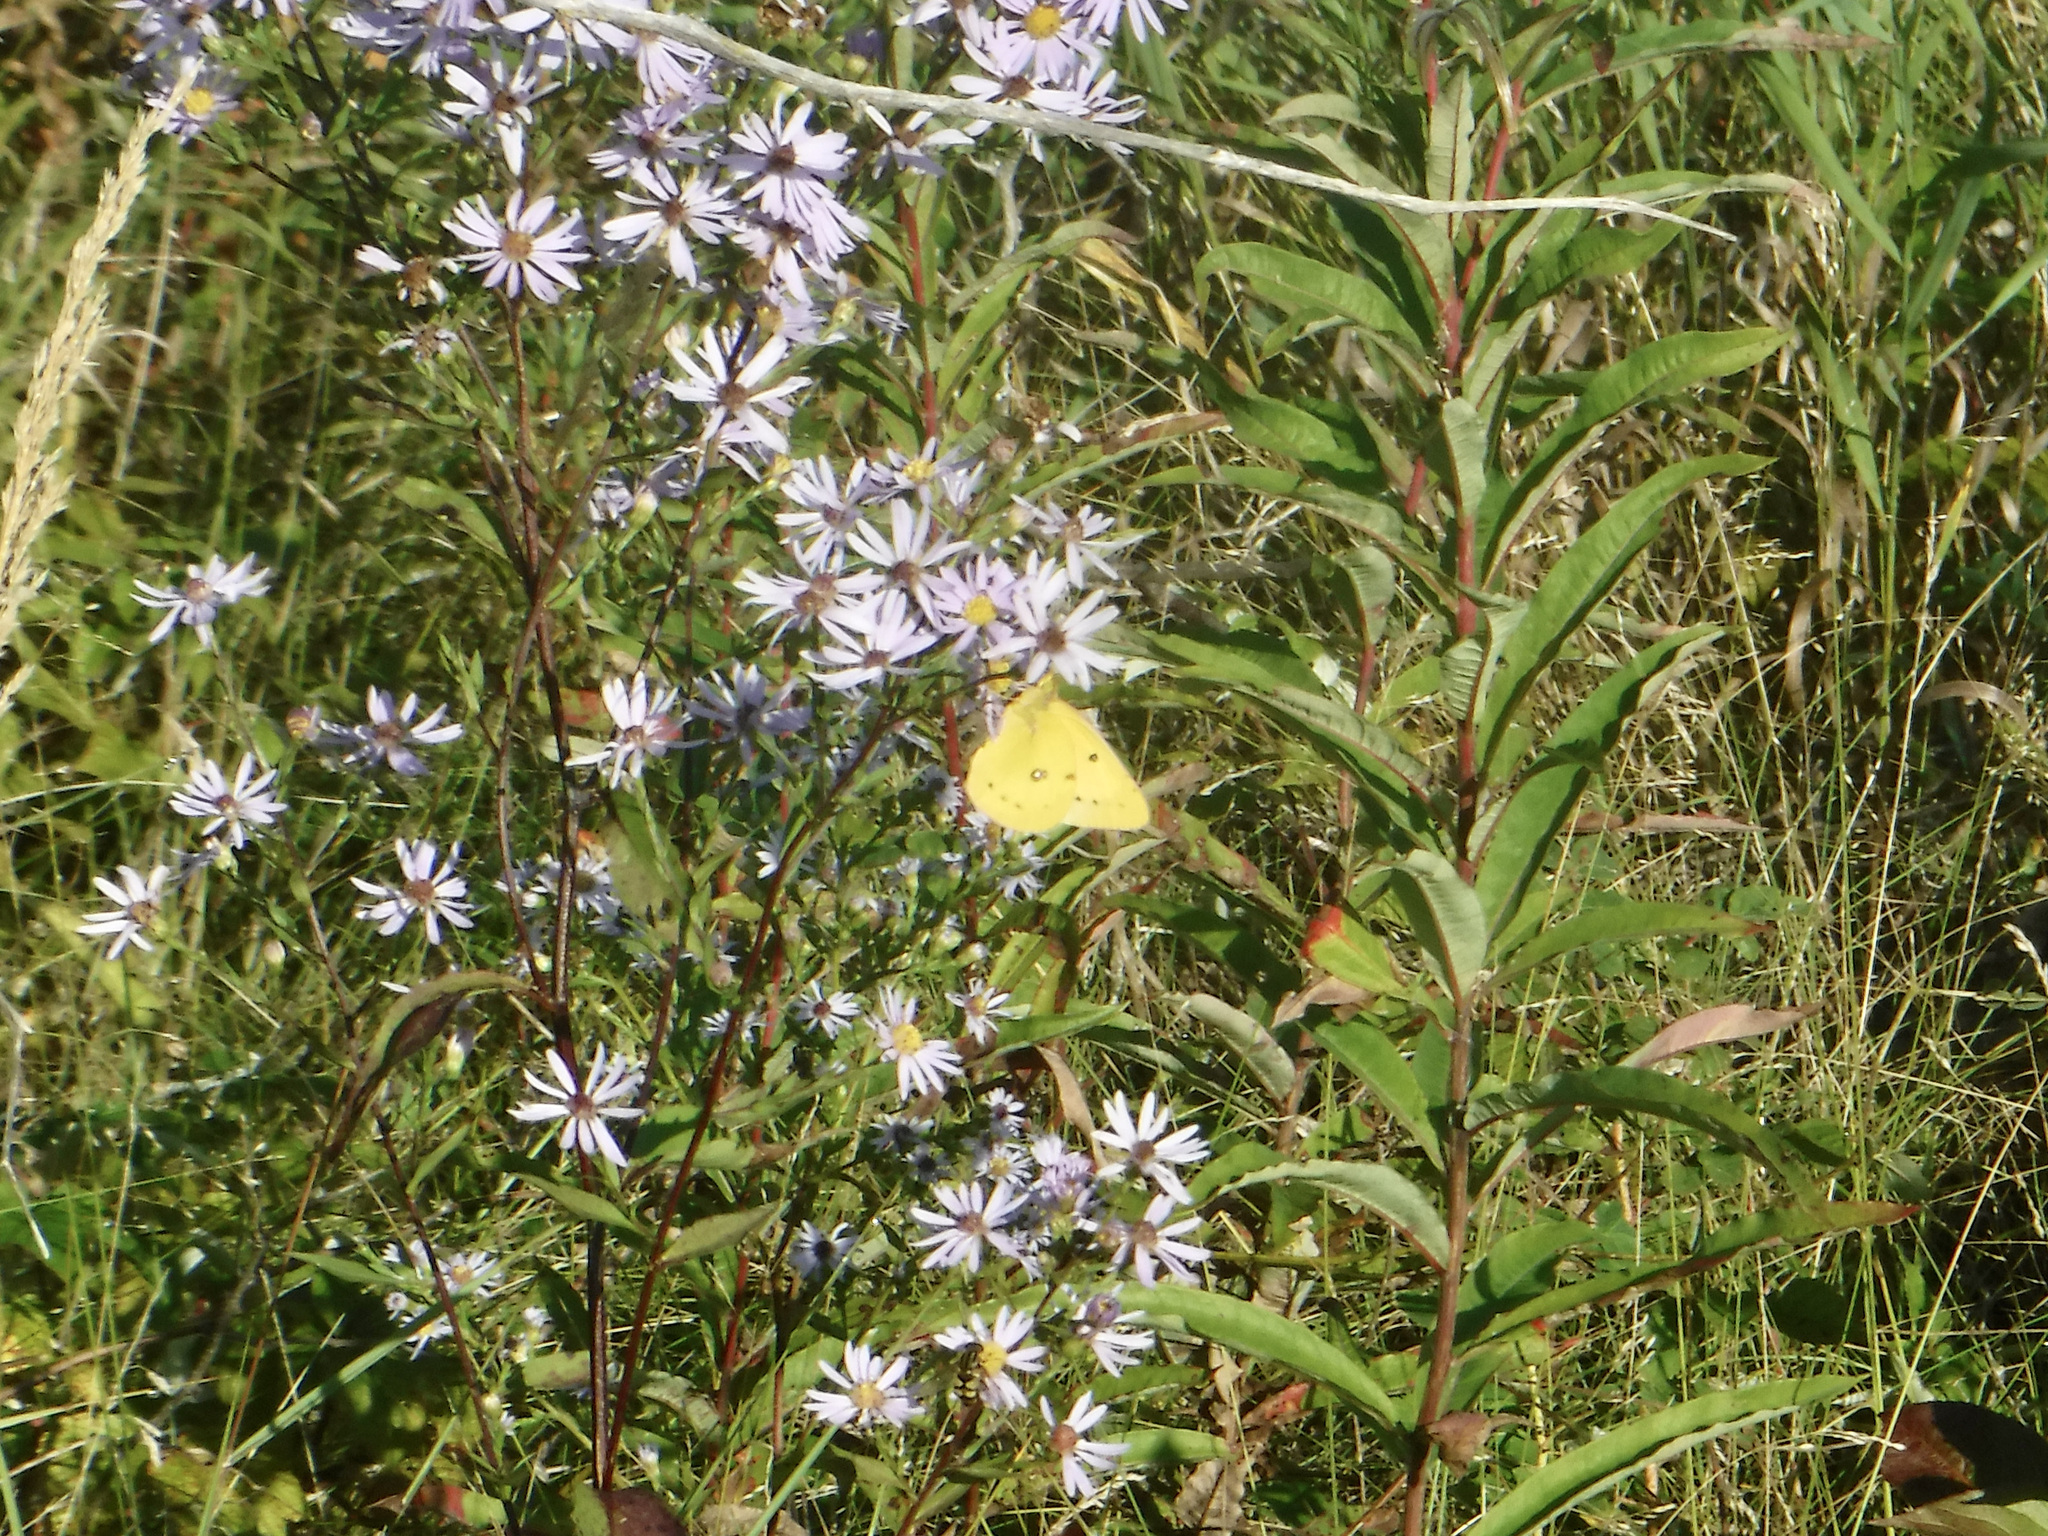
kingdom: Animalia
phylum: Arthropoda
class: Insecta
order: Lepidoptera
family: Pieridae
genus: Colias
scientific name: Colias eurytheme
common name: Alfalfa butterfly
